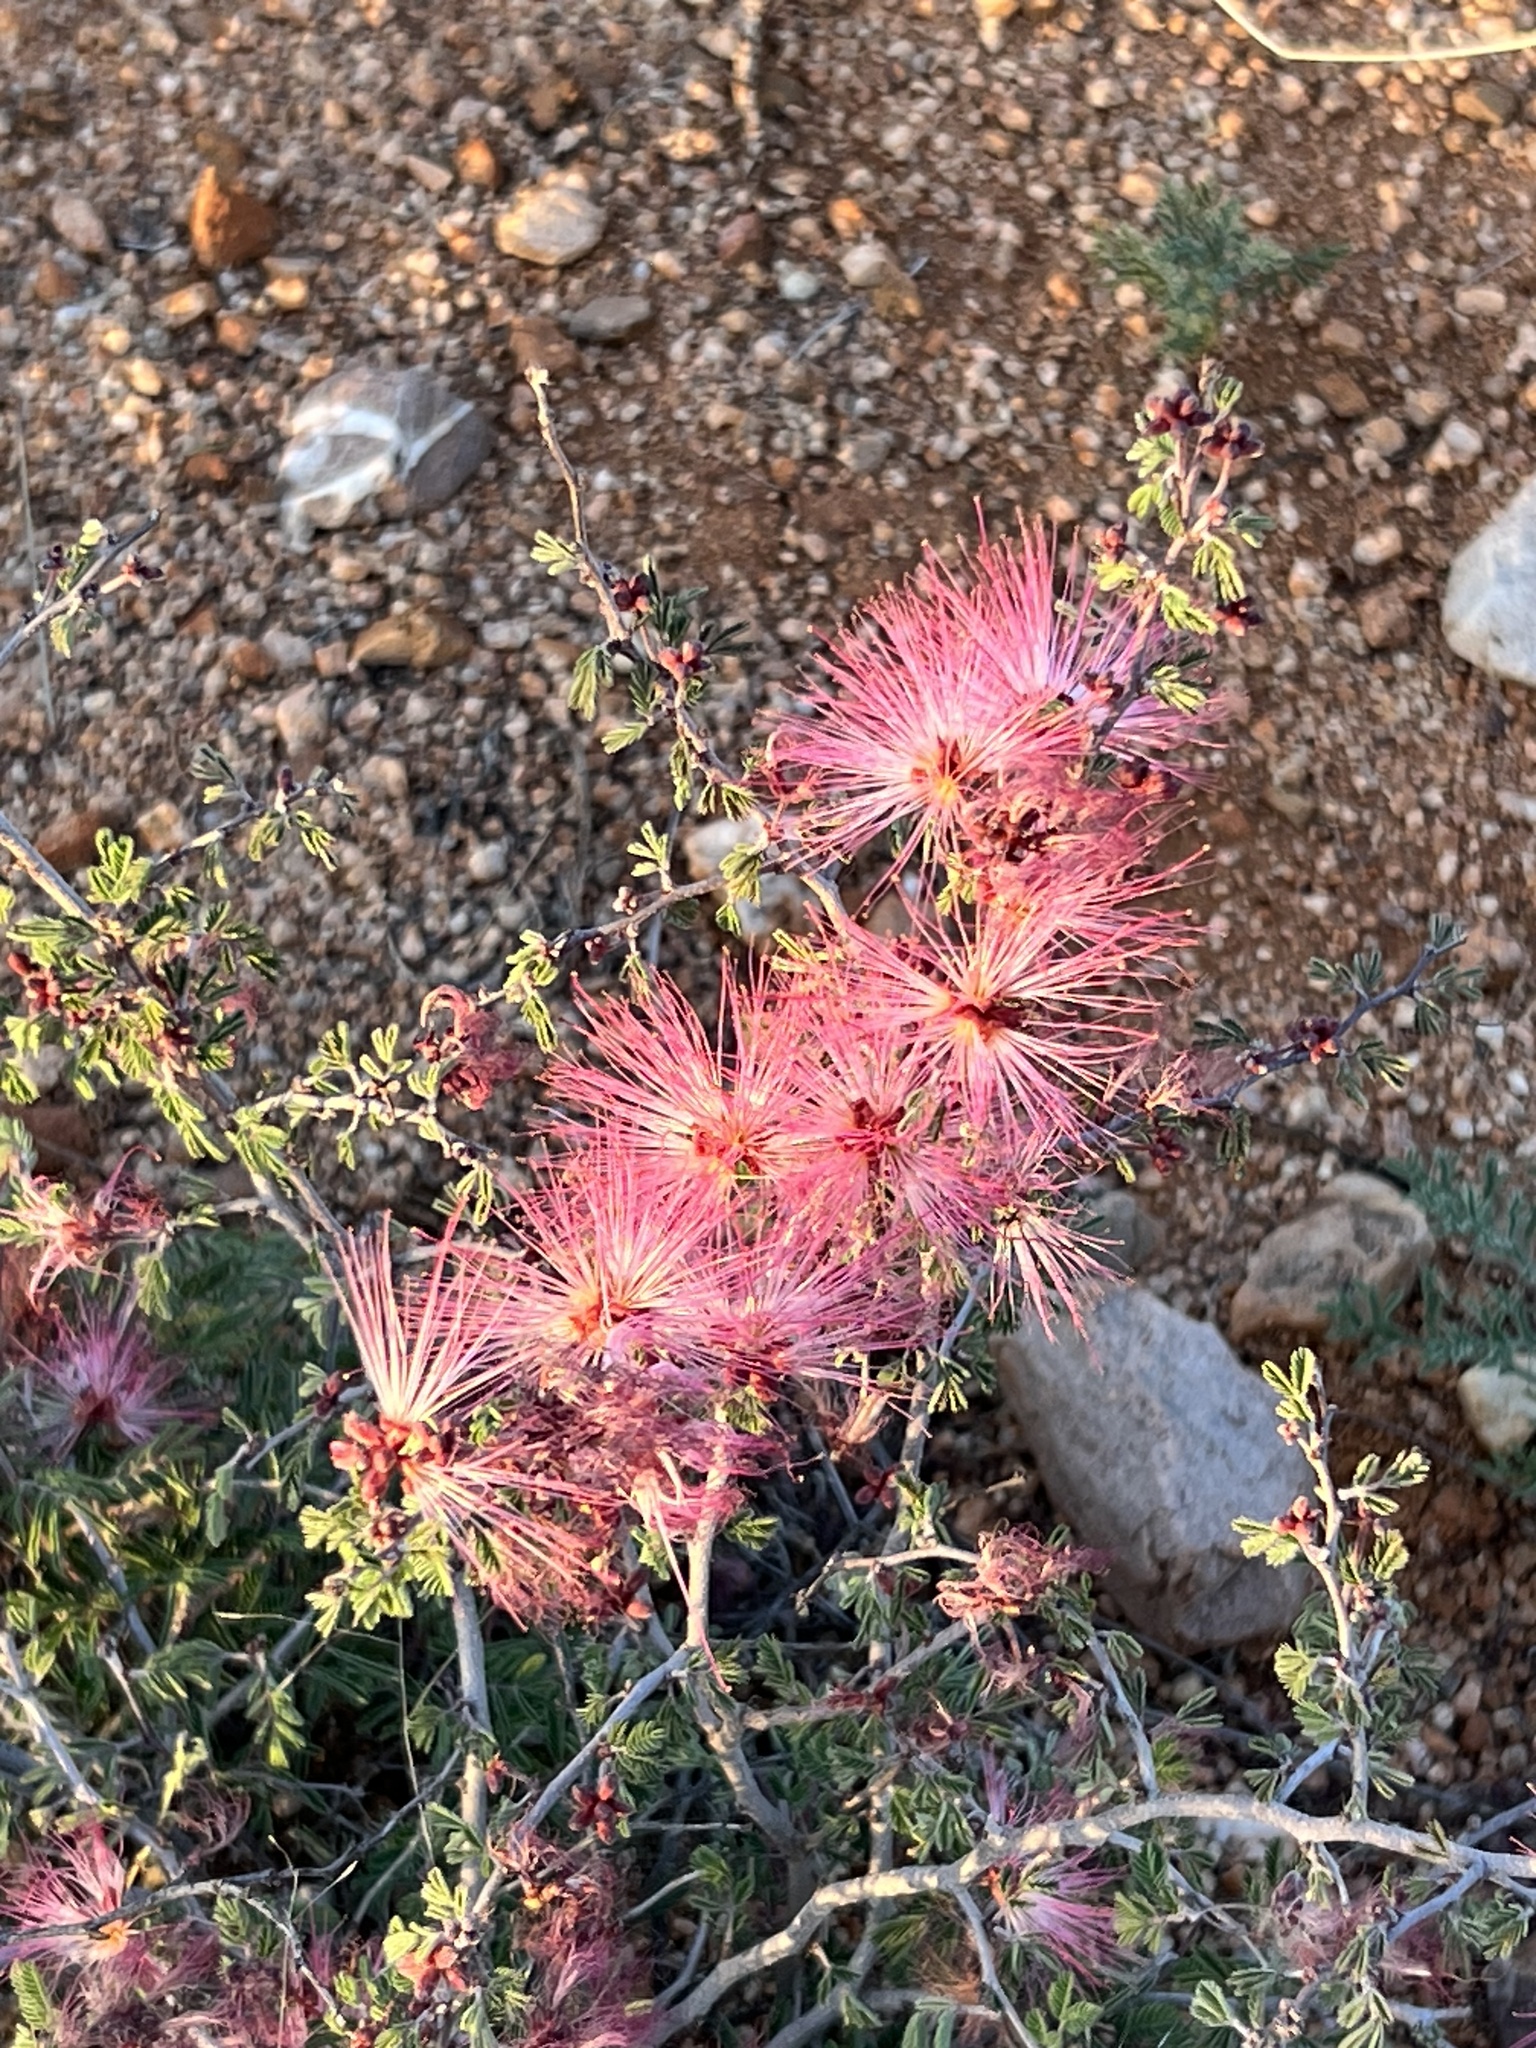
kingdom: Plantae
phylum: Tracheophyta
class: Magnoliopsida
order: Fabales
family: Fabaceae
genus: Calliandra
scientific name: Calliandra eriophylla
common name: Fairy-duster
